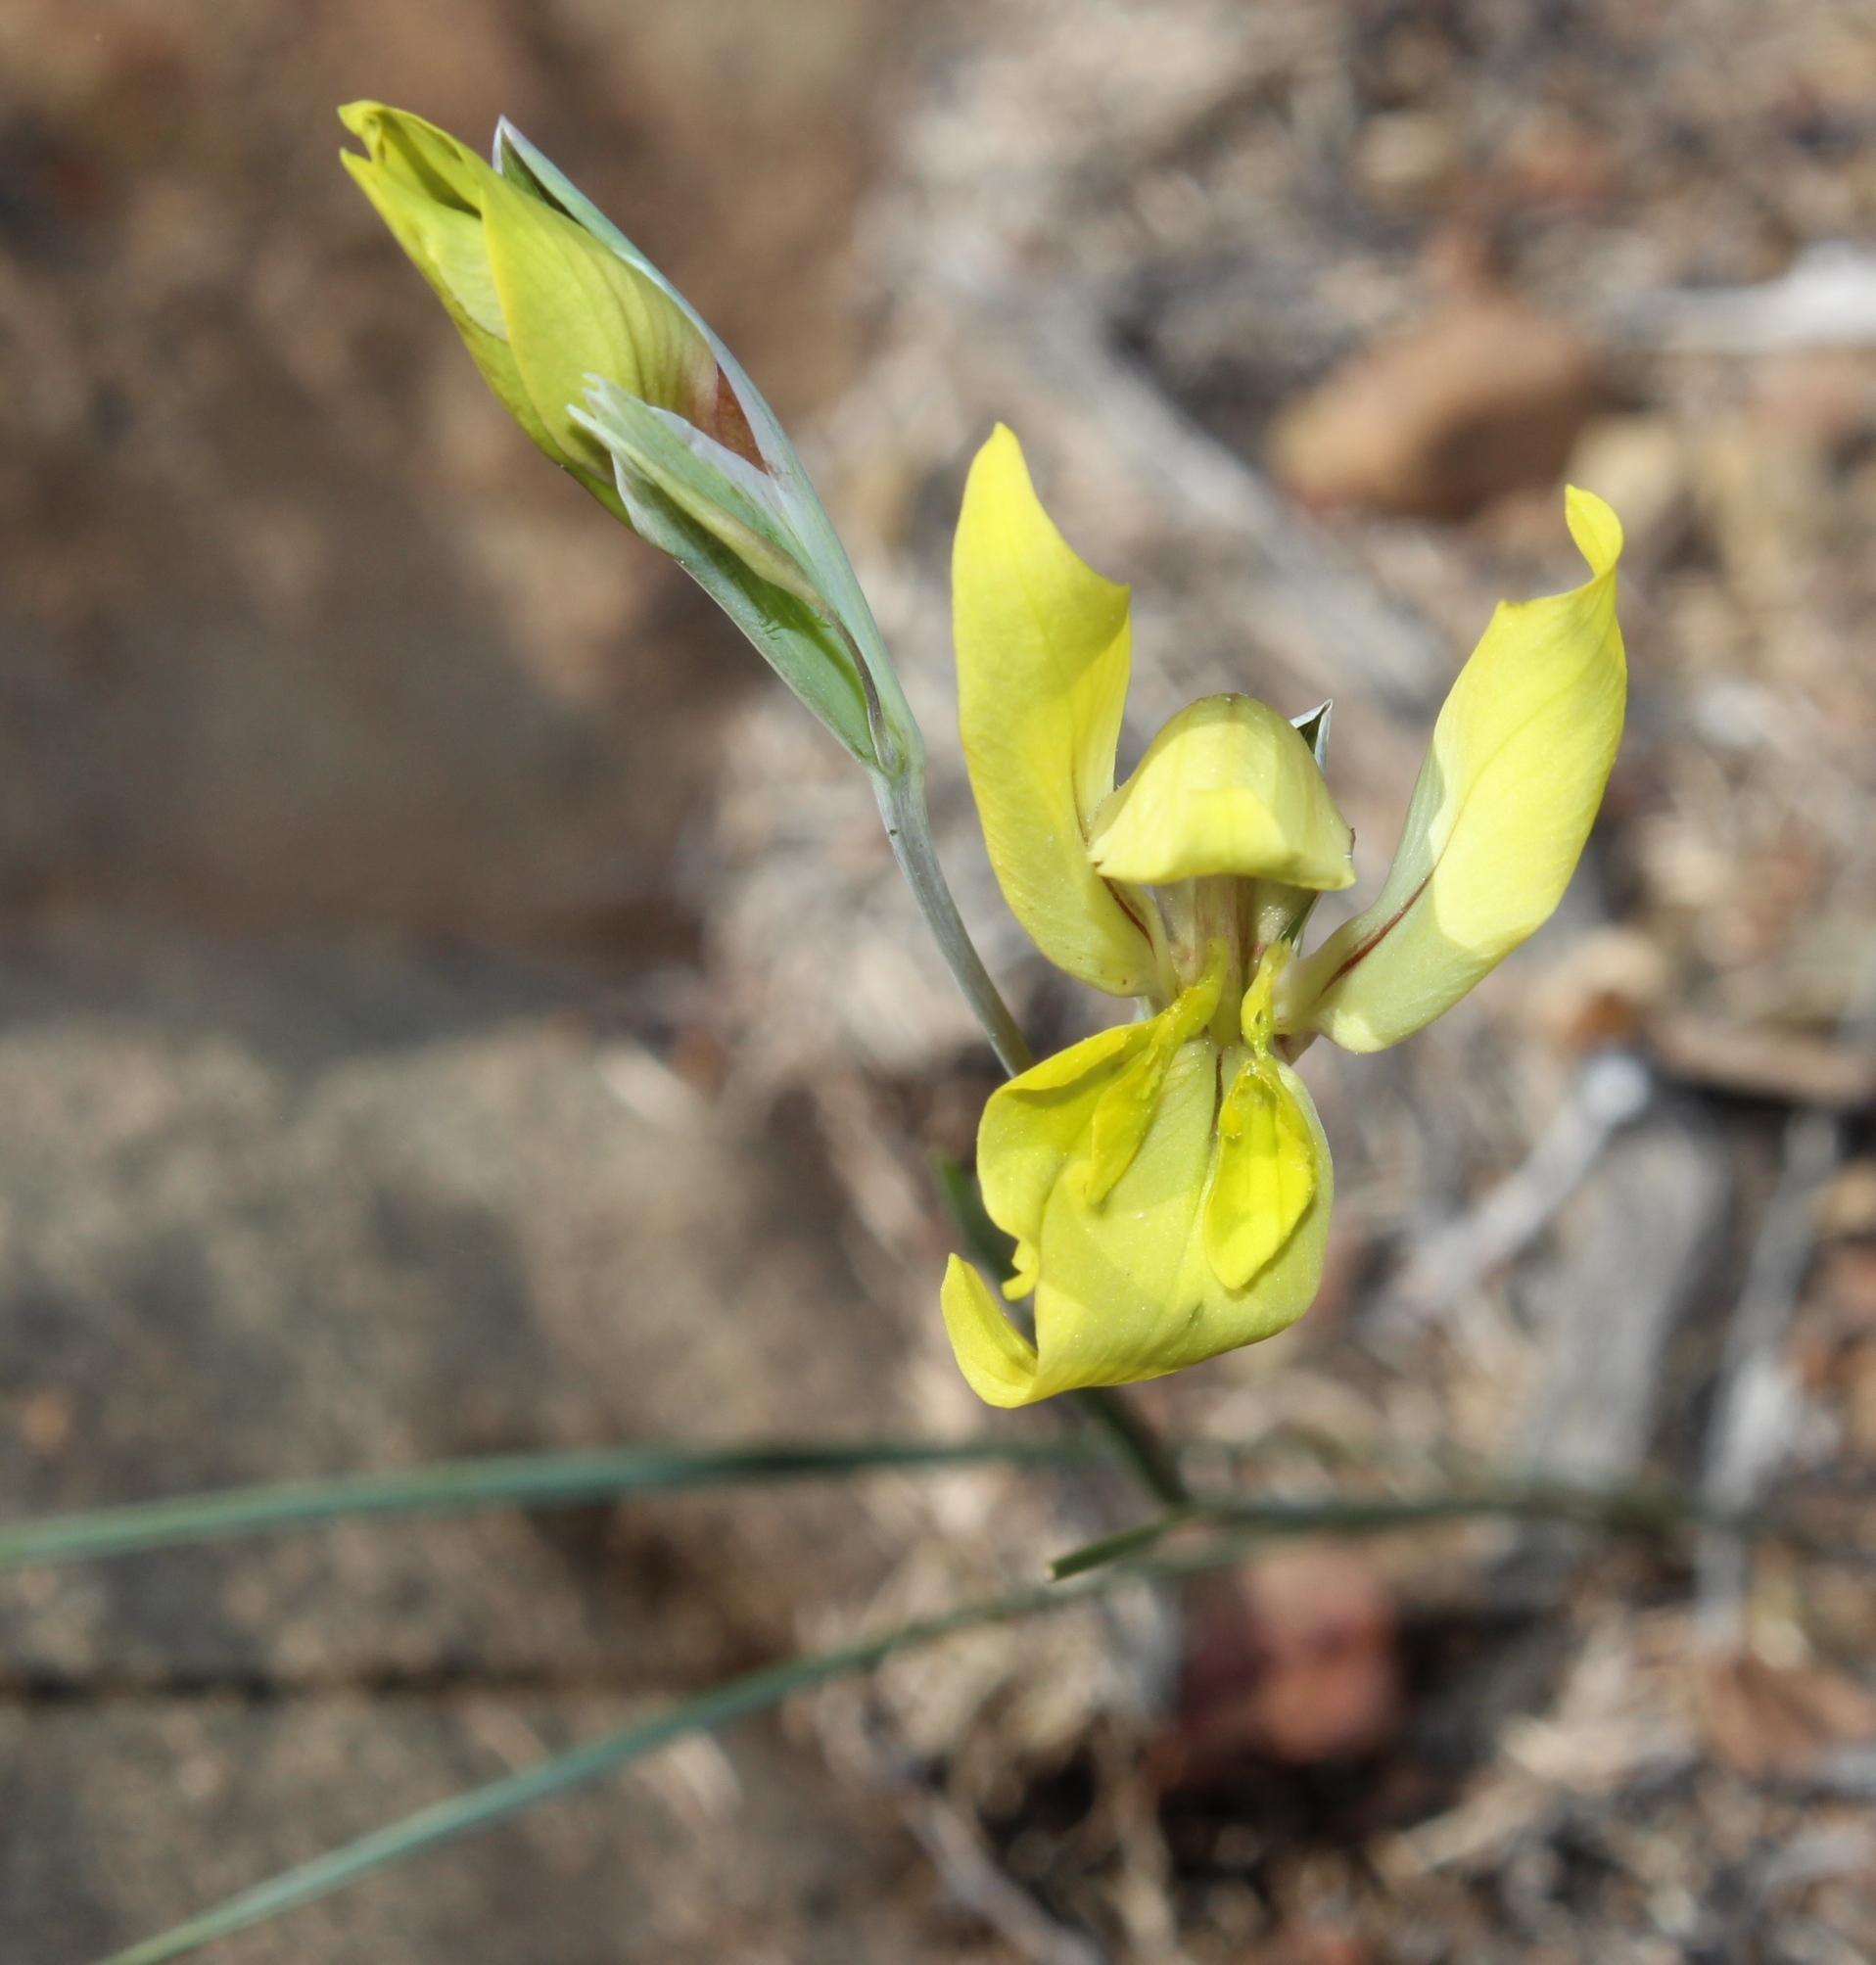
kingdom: Plantae
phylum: Tracheophyta
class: Liliopsida
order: Asparagales
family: Iridaceae
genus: Gladiolus
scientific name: Gladiolus karooicus
